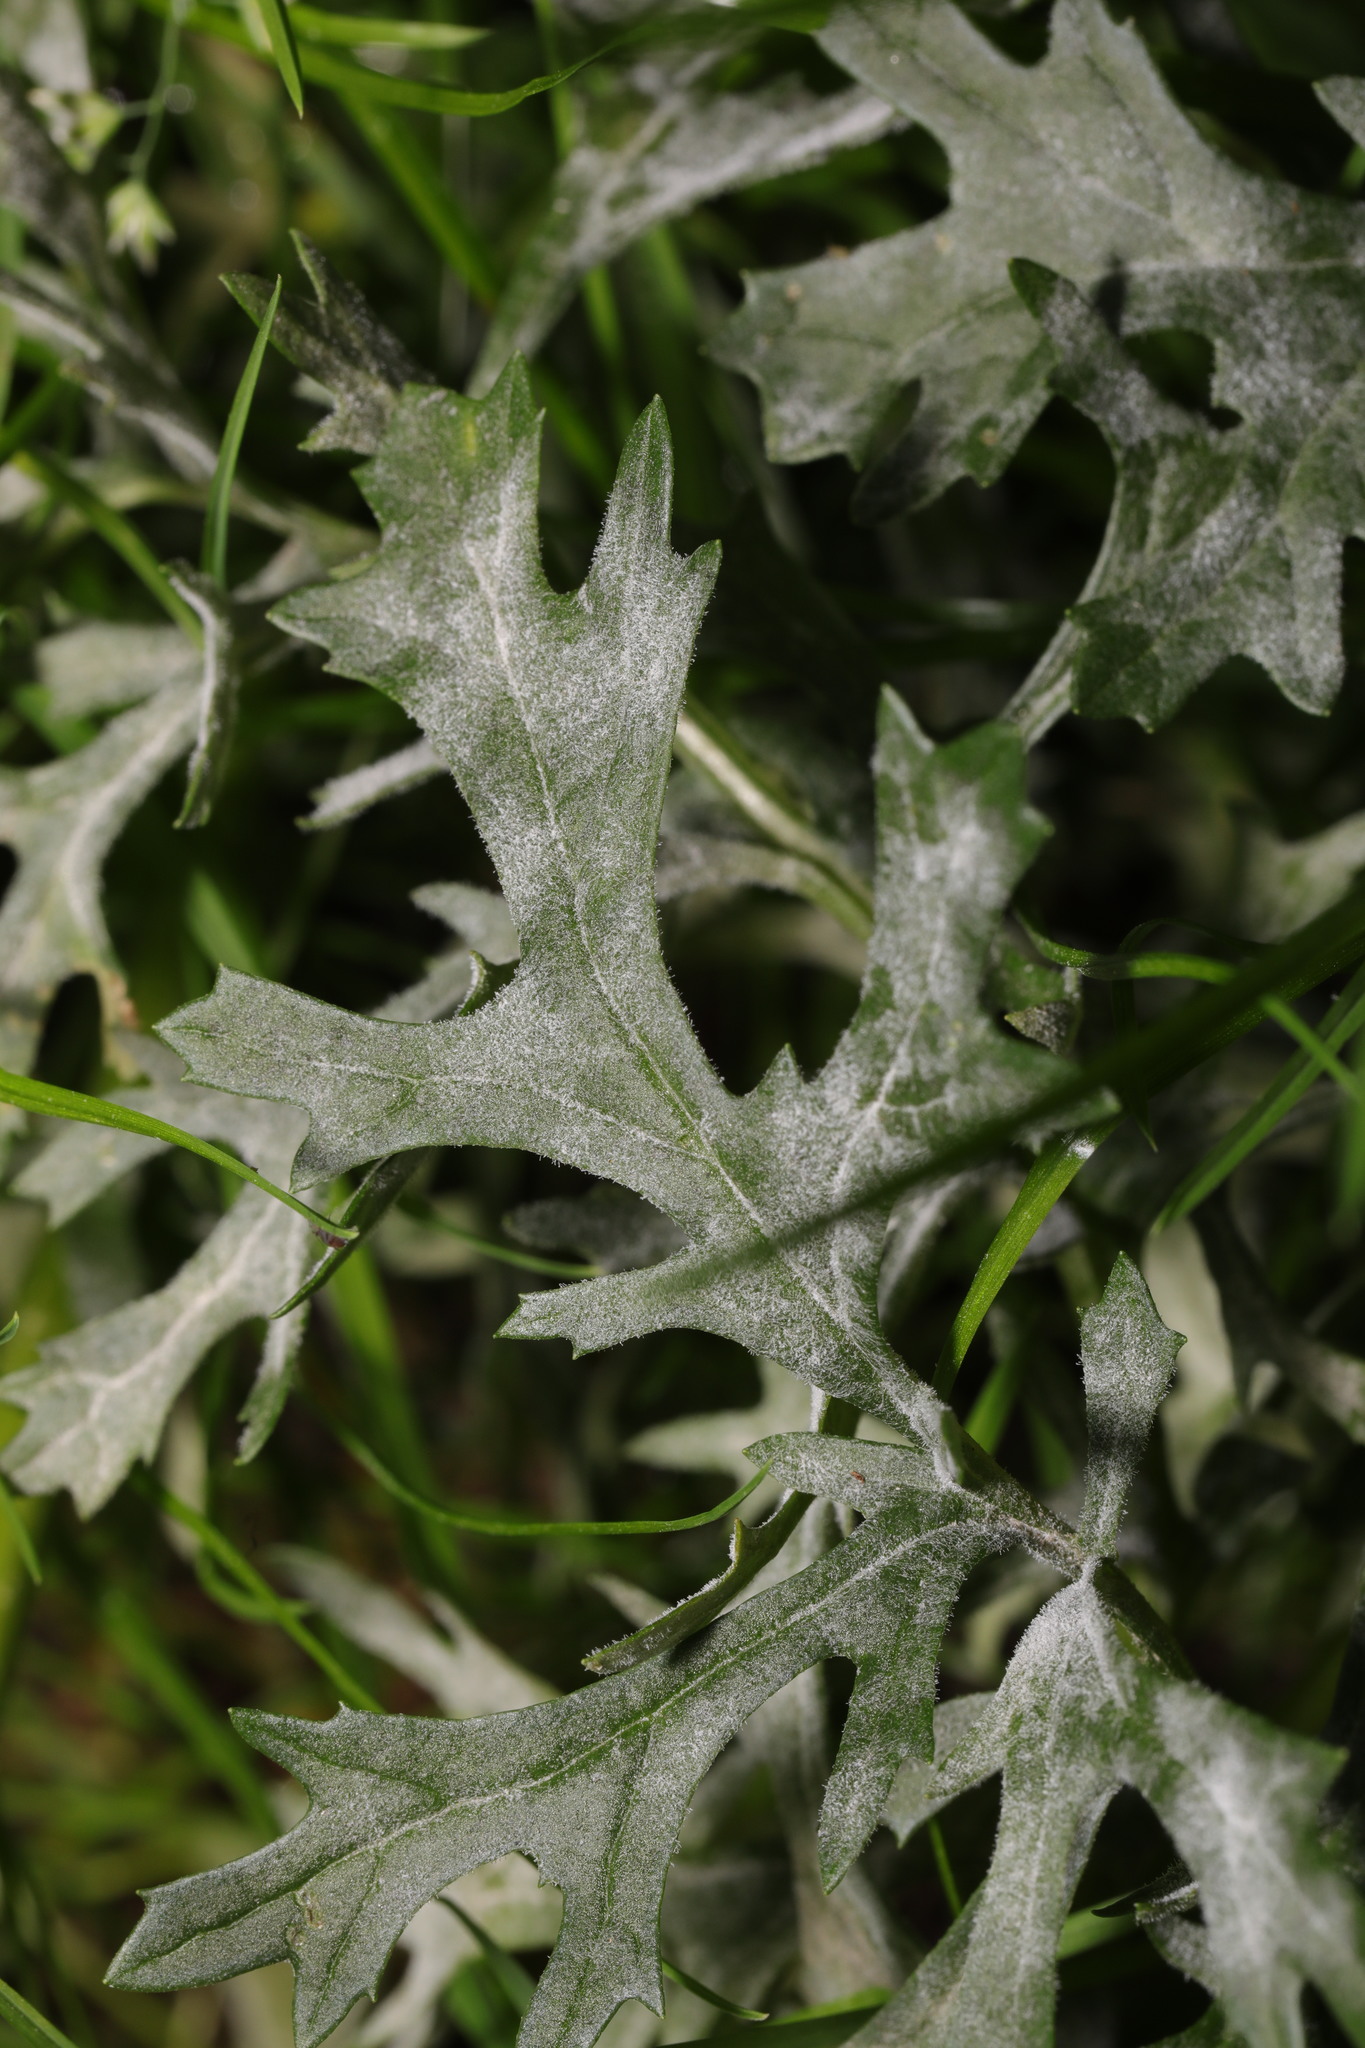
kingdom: Fungi
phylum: Ascomycota
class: Leotiomycetes
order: Helotiales
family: Erysiphaceae
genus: Golovinomyces
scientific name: Golovinomyces senecionis
